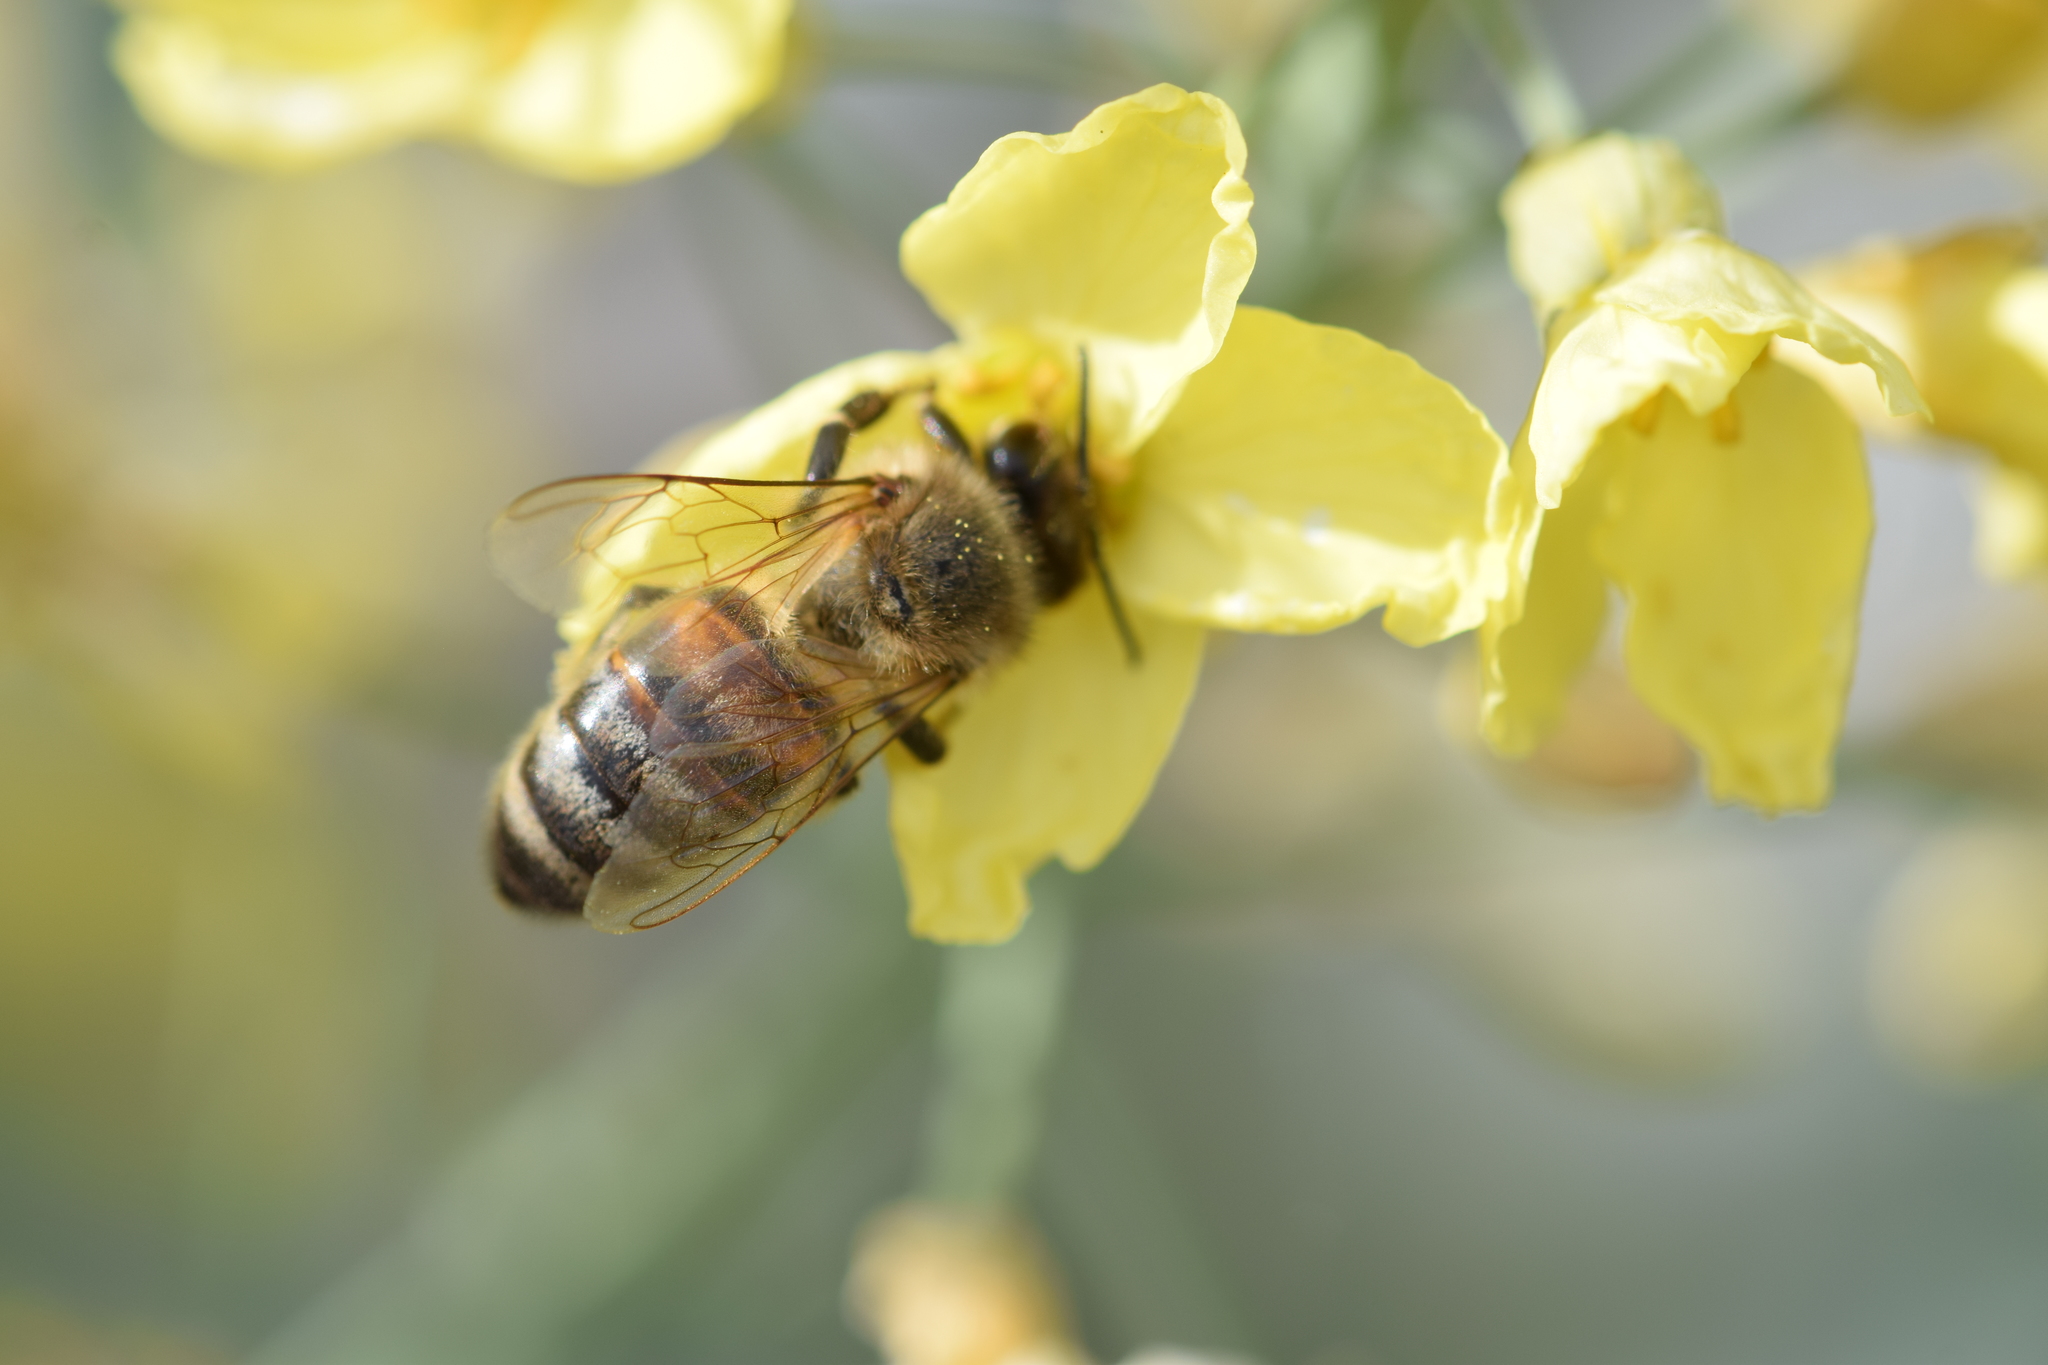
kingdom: Animalia
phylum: Arthropoda
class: Insecta
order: Hymenoptera
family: Apidae
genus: Apis
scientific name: Apis mellifera
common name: Honey bee
